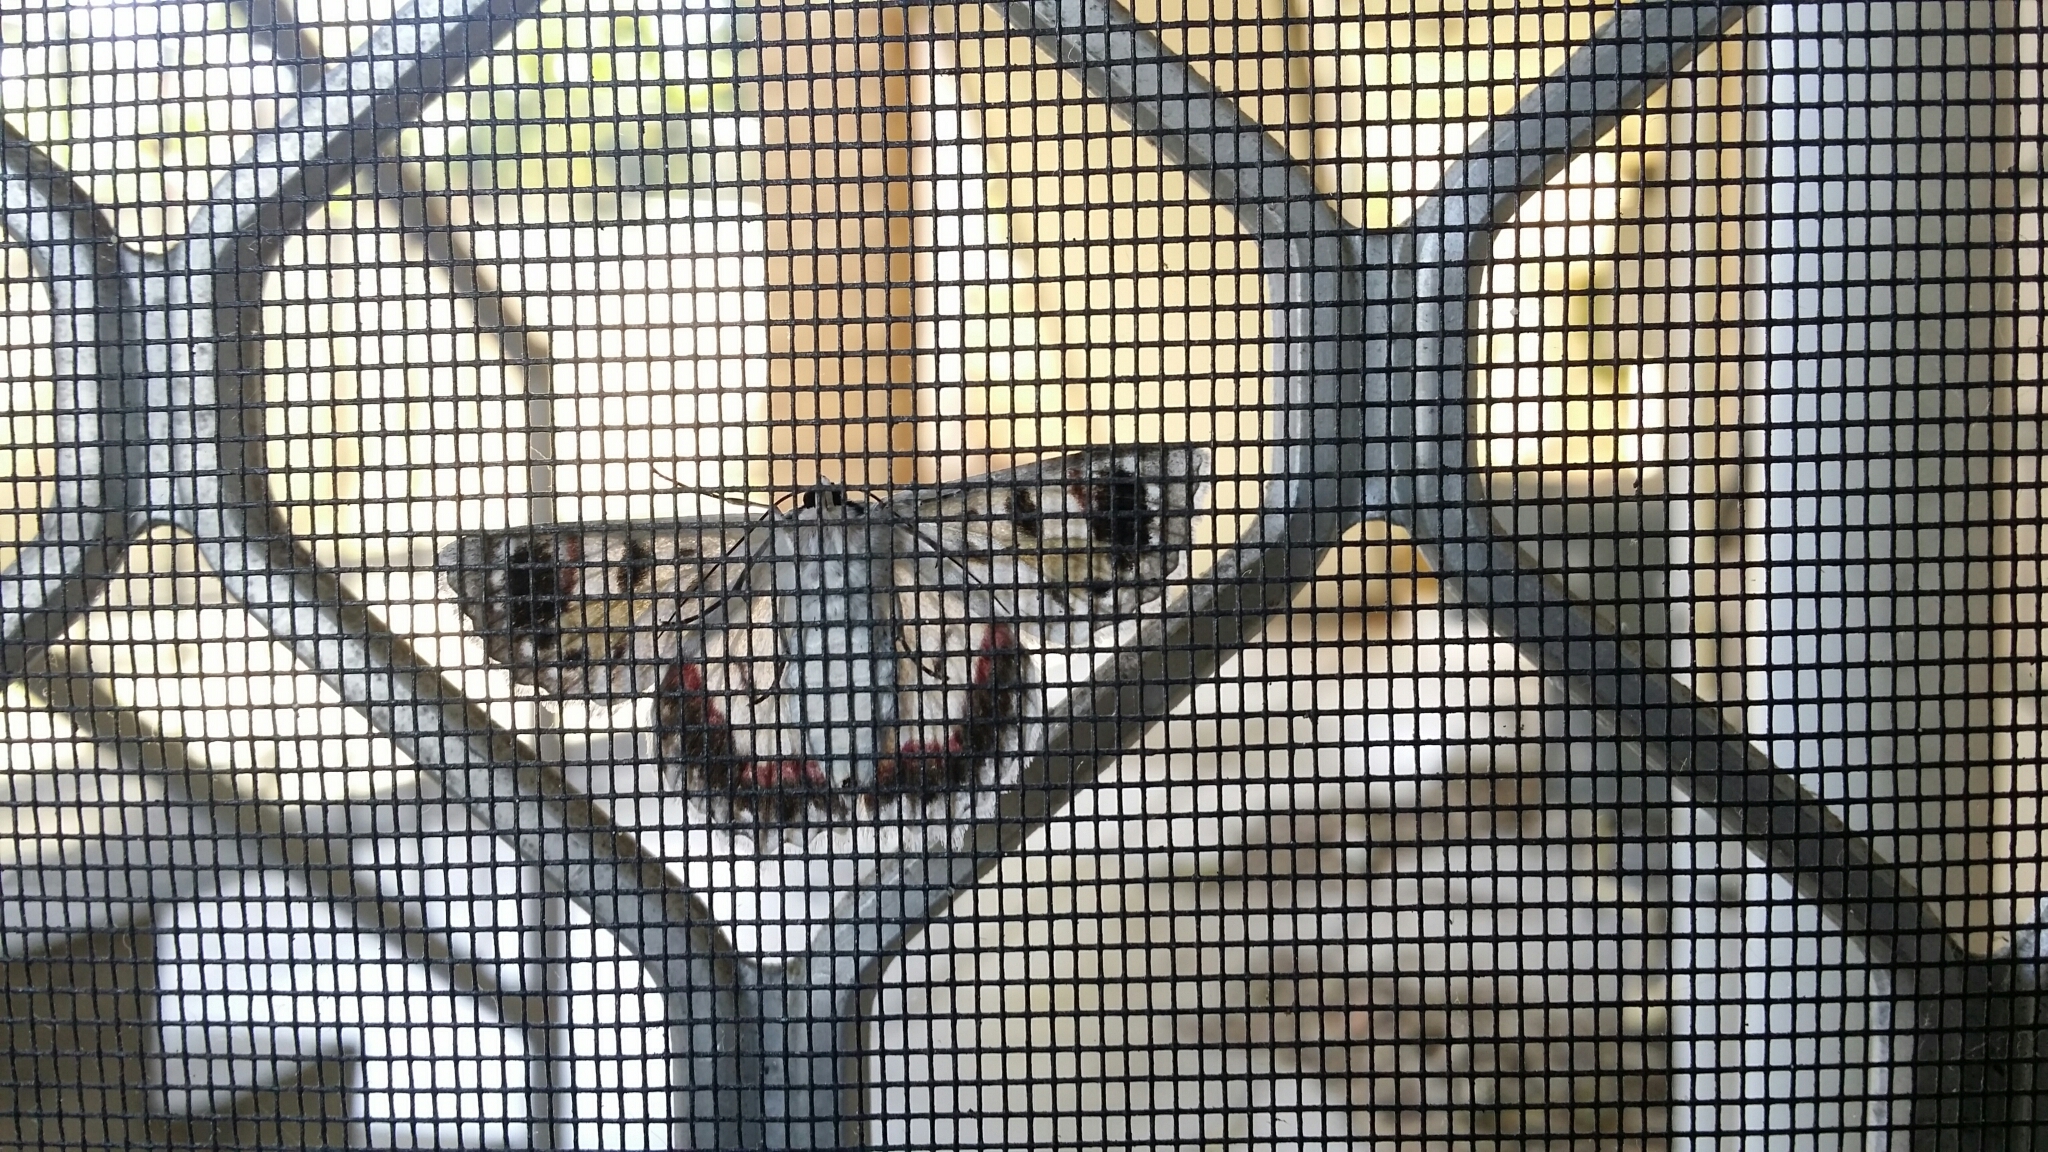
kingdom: Animalia
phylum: Arthropoda
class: Insecta
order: Lepidoptera
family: Geometridae
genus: Crypsiphona
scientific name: Crypsiphona ocultaria
